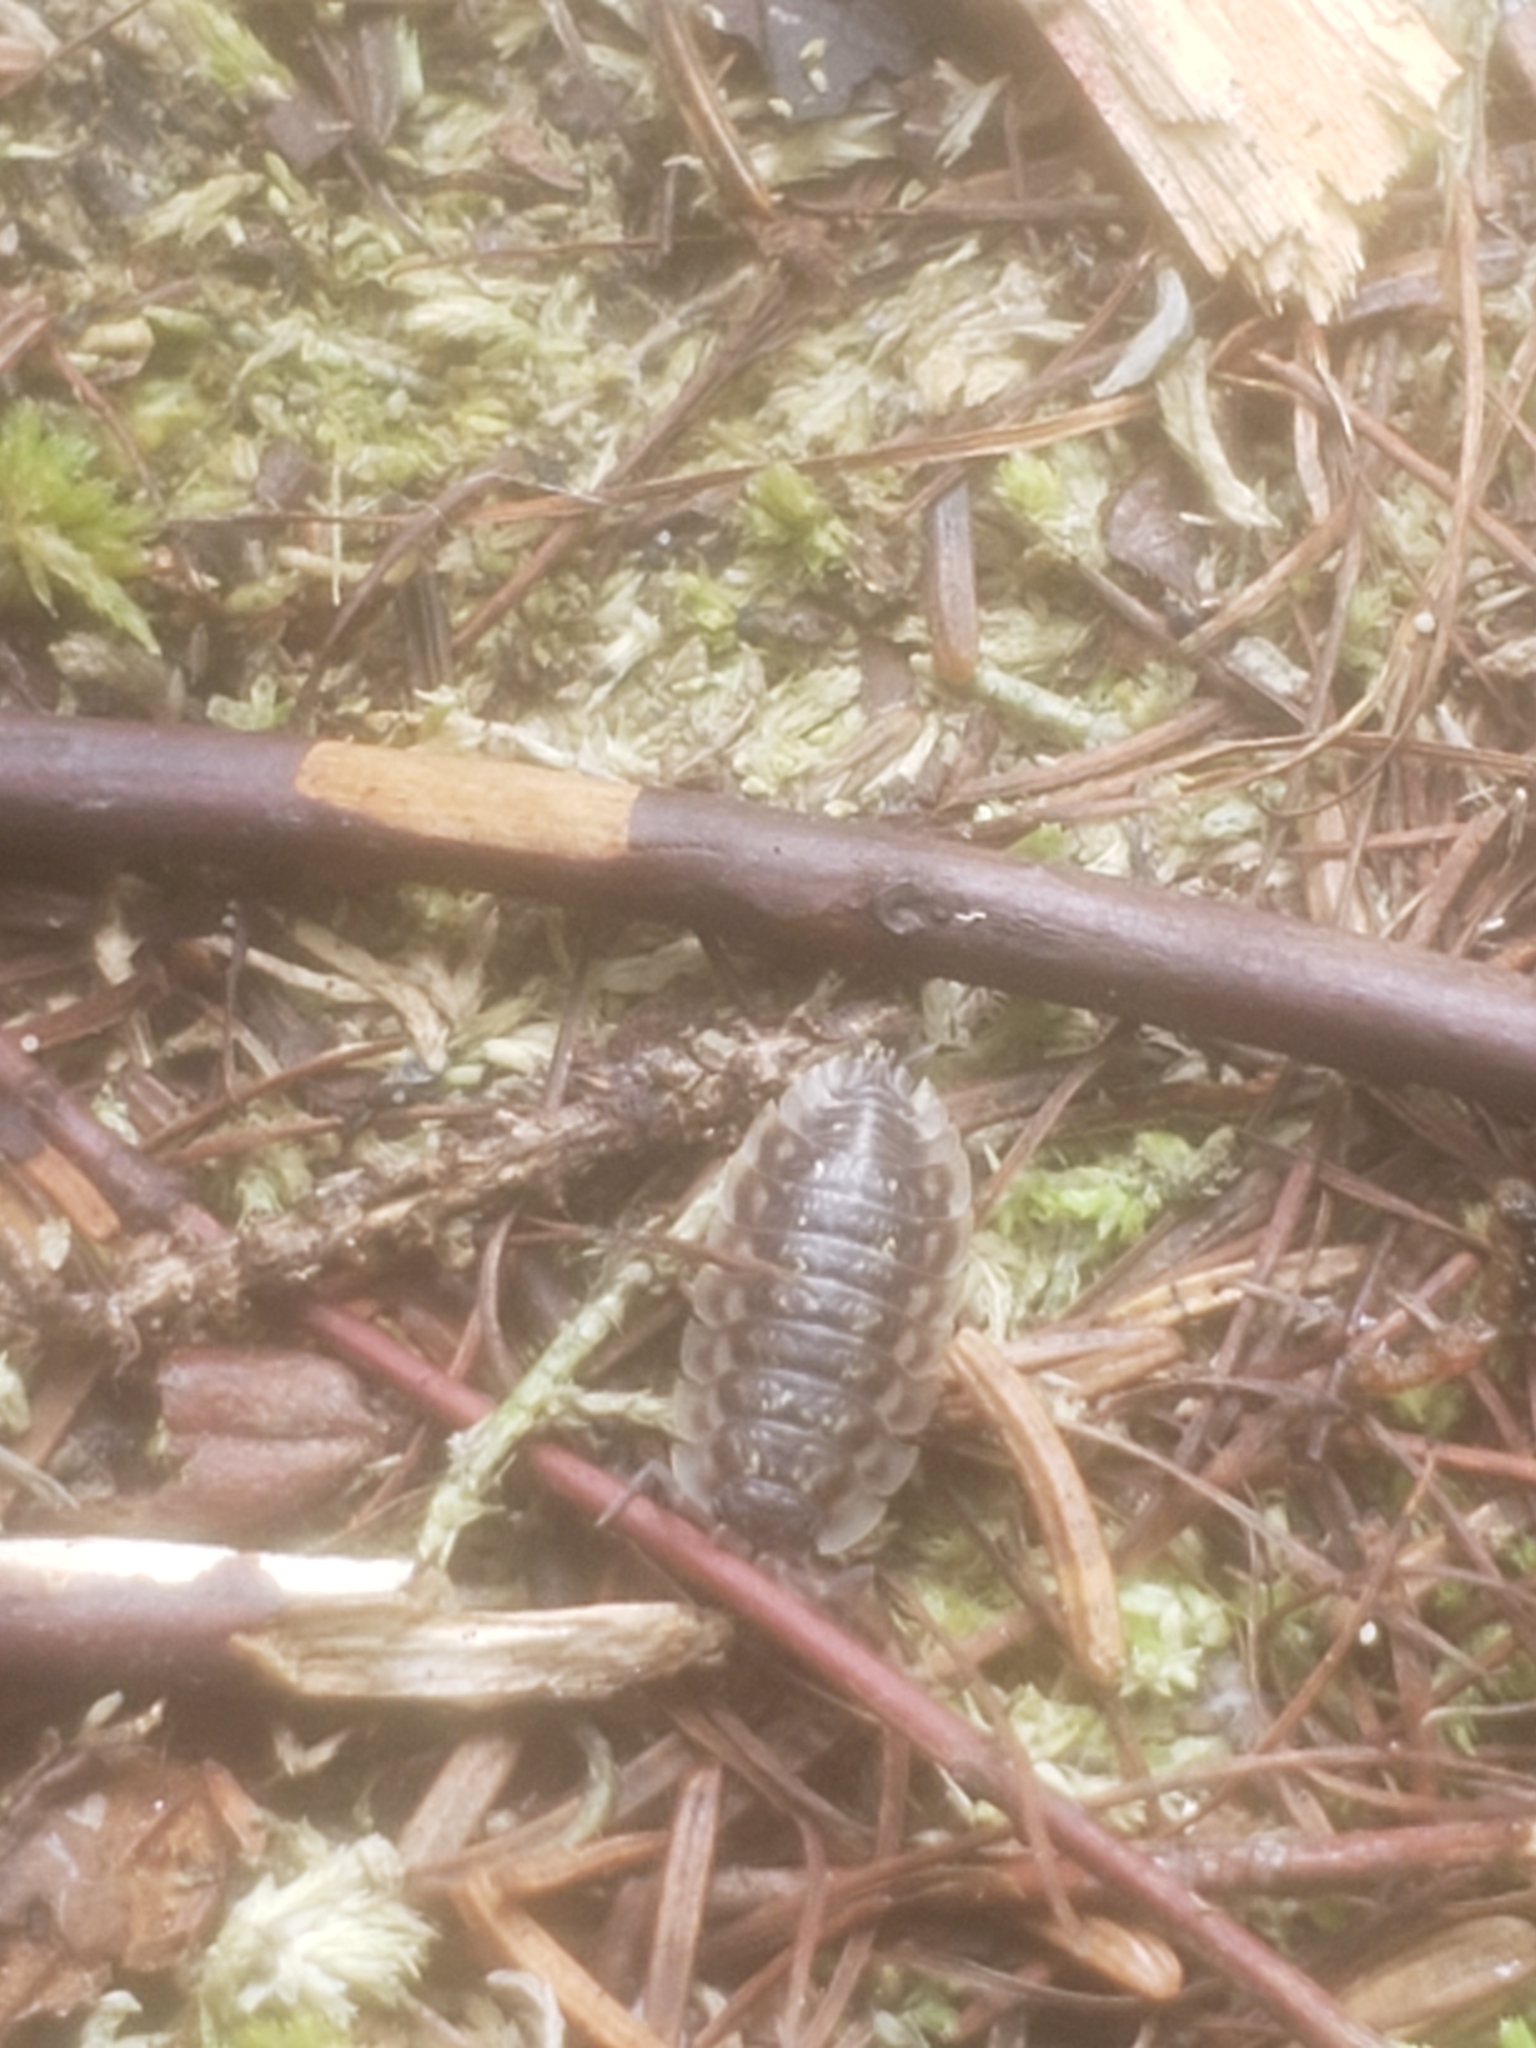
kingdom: Animalia
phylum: Arthropoda
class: Malacostraca
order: Isopoda
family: Oniscidae
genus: Oniscus
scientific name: Oniscus asellus
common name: Common shiny woodlouse
